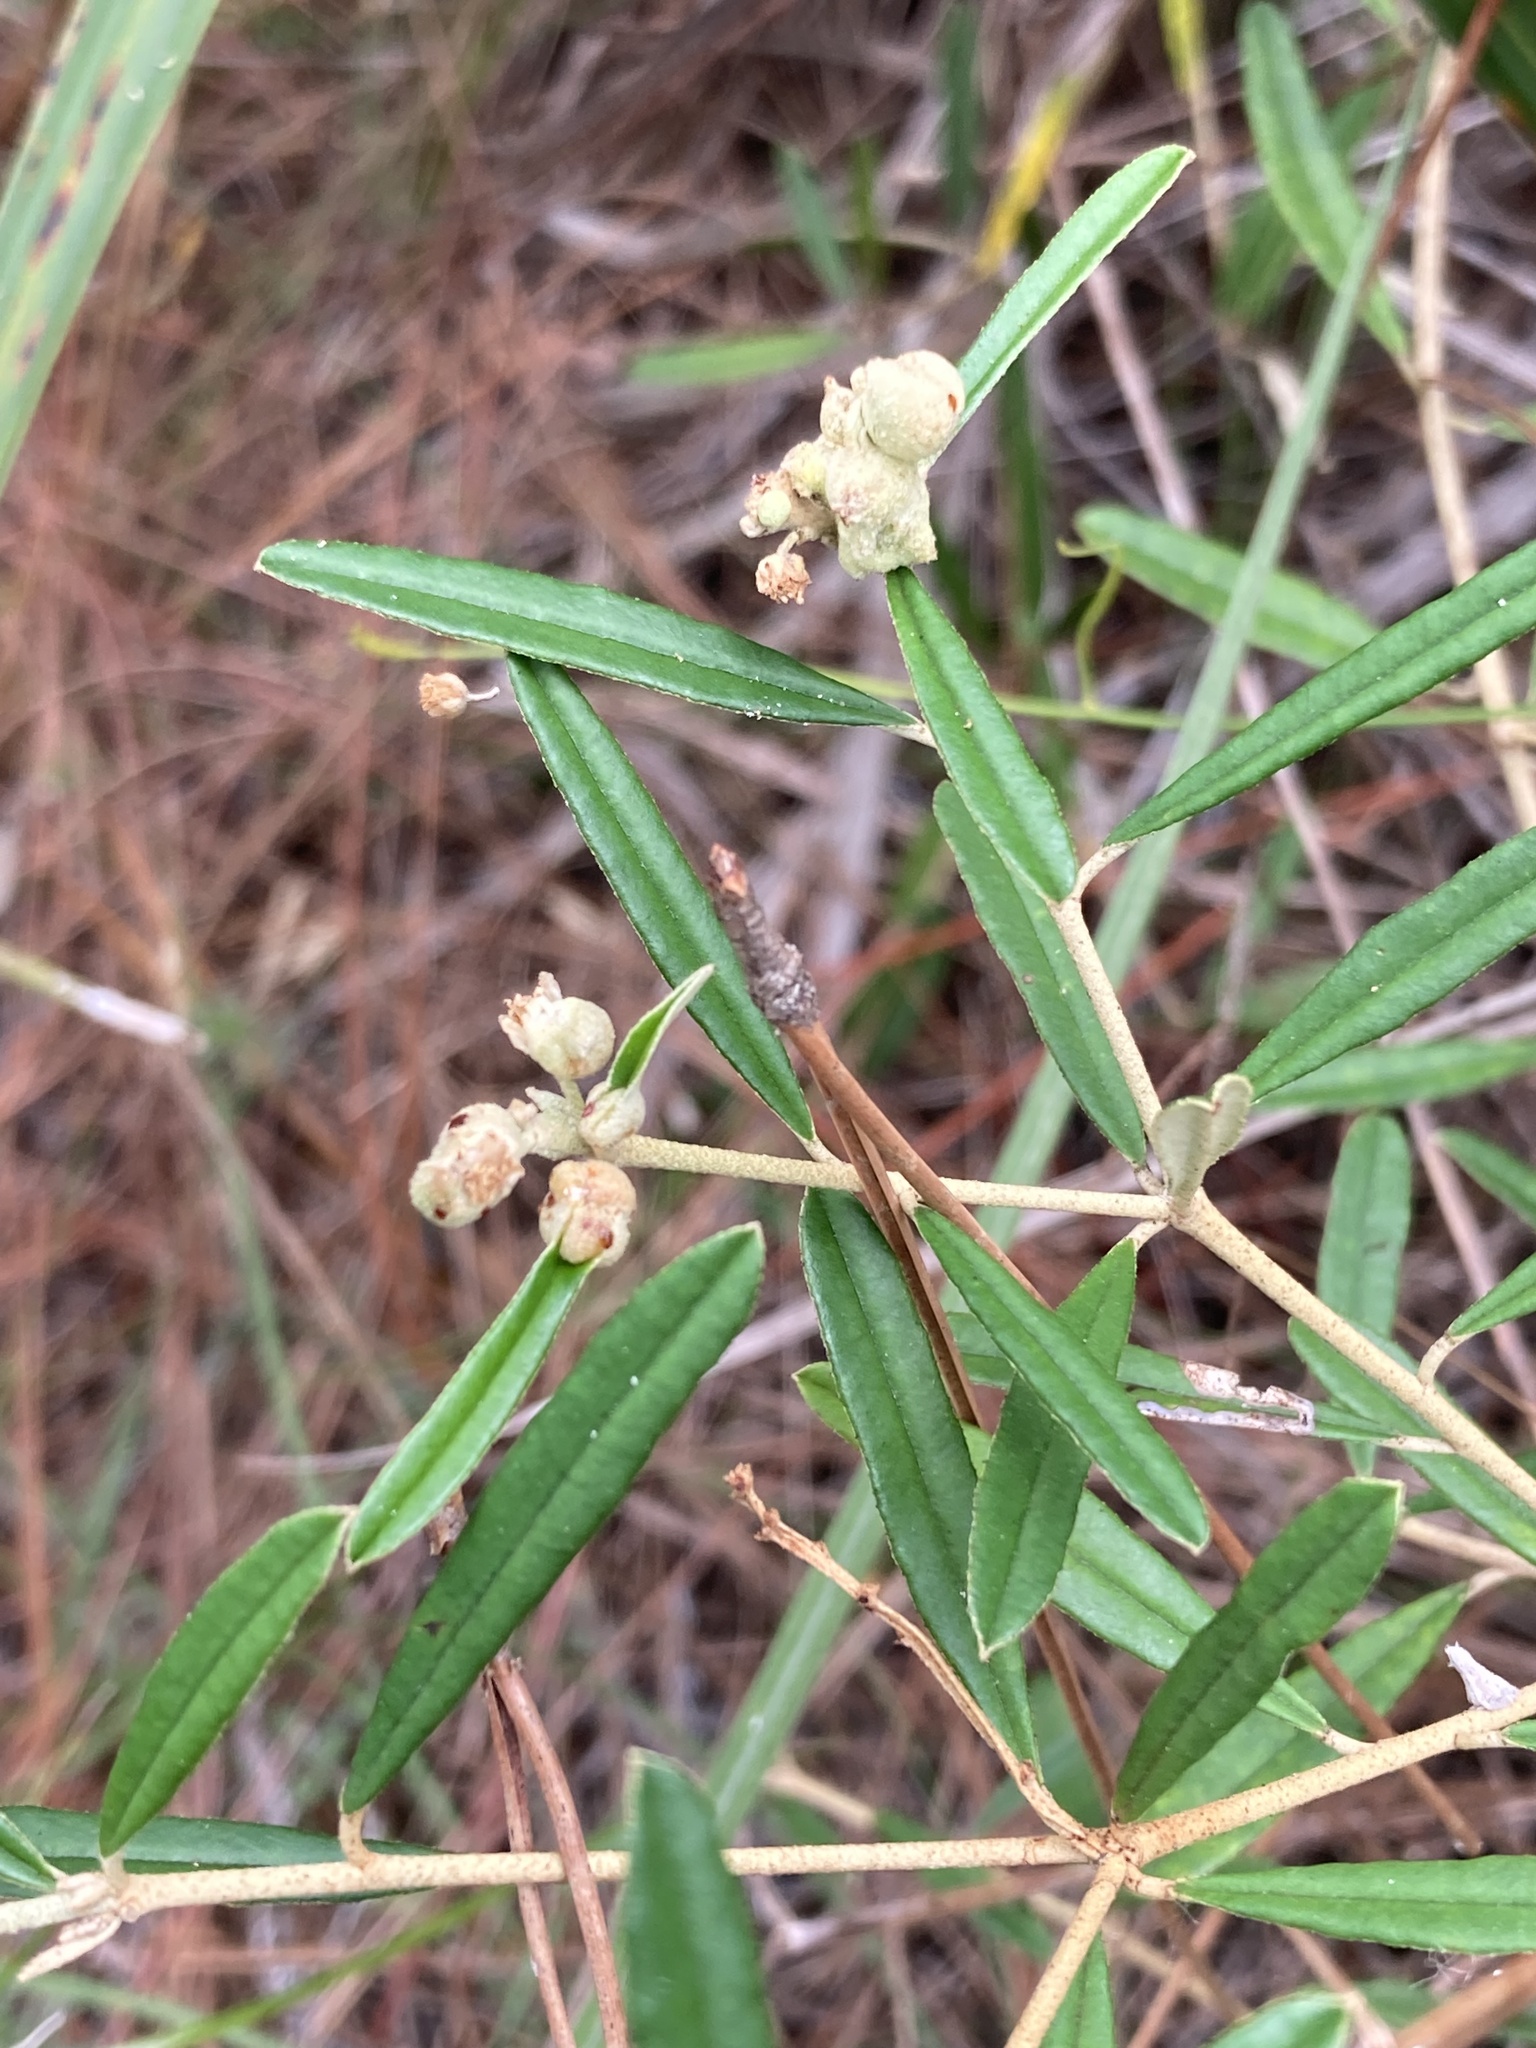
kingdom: Plantae
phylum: Tracheophyta
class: Magnoliopsida
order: Malpighiales
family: Euphorbiaceae
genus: Croton
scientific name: Croton linearis
